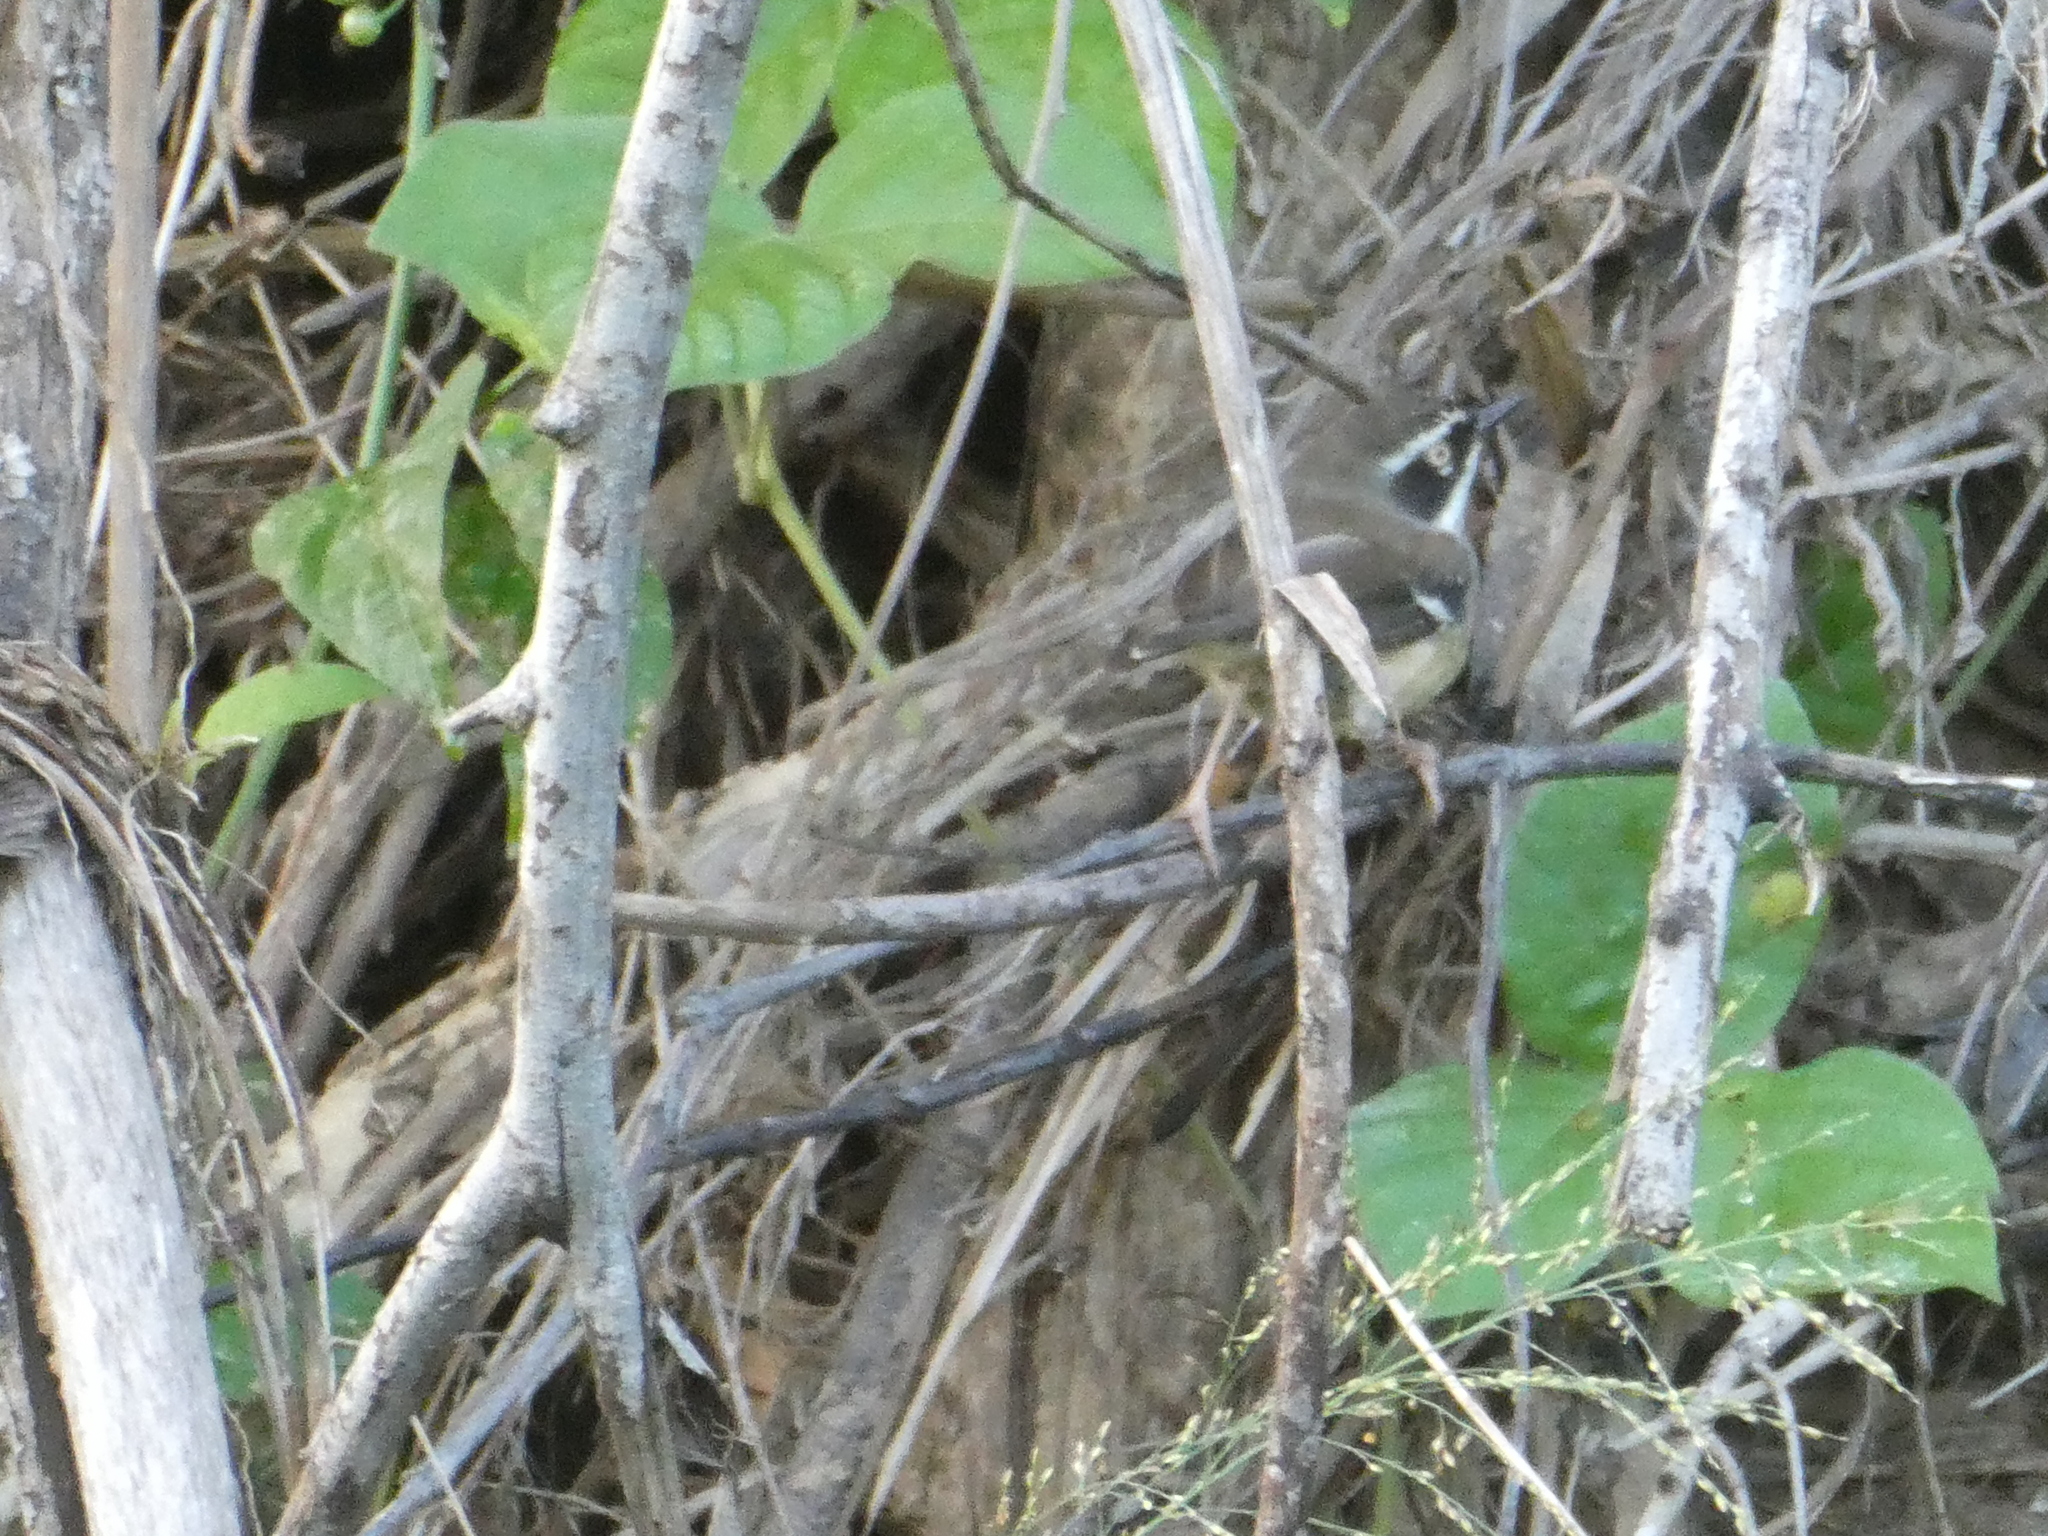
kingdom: Animalia
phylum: Chordata
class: Aves
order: Passeriformes
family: Acanthizidae
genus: Sericornis
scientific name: Sericornis frontalis
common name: White-browed scrubwren
